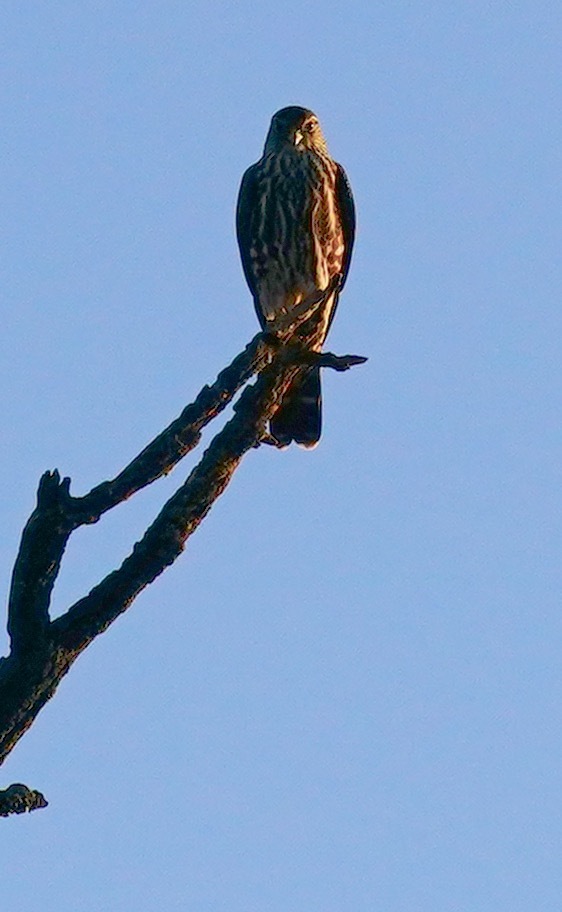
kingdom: Animalia
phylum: Chordata
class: Aves
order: Falconiformes
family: Falconidae
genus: Falco
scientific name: Falco columbarius
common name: Merlin
